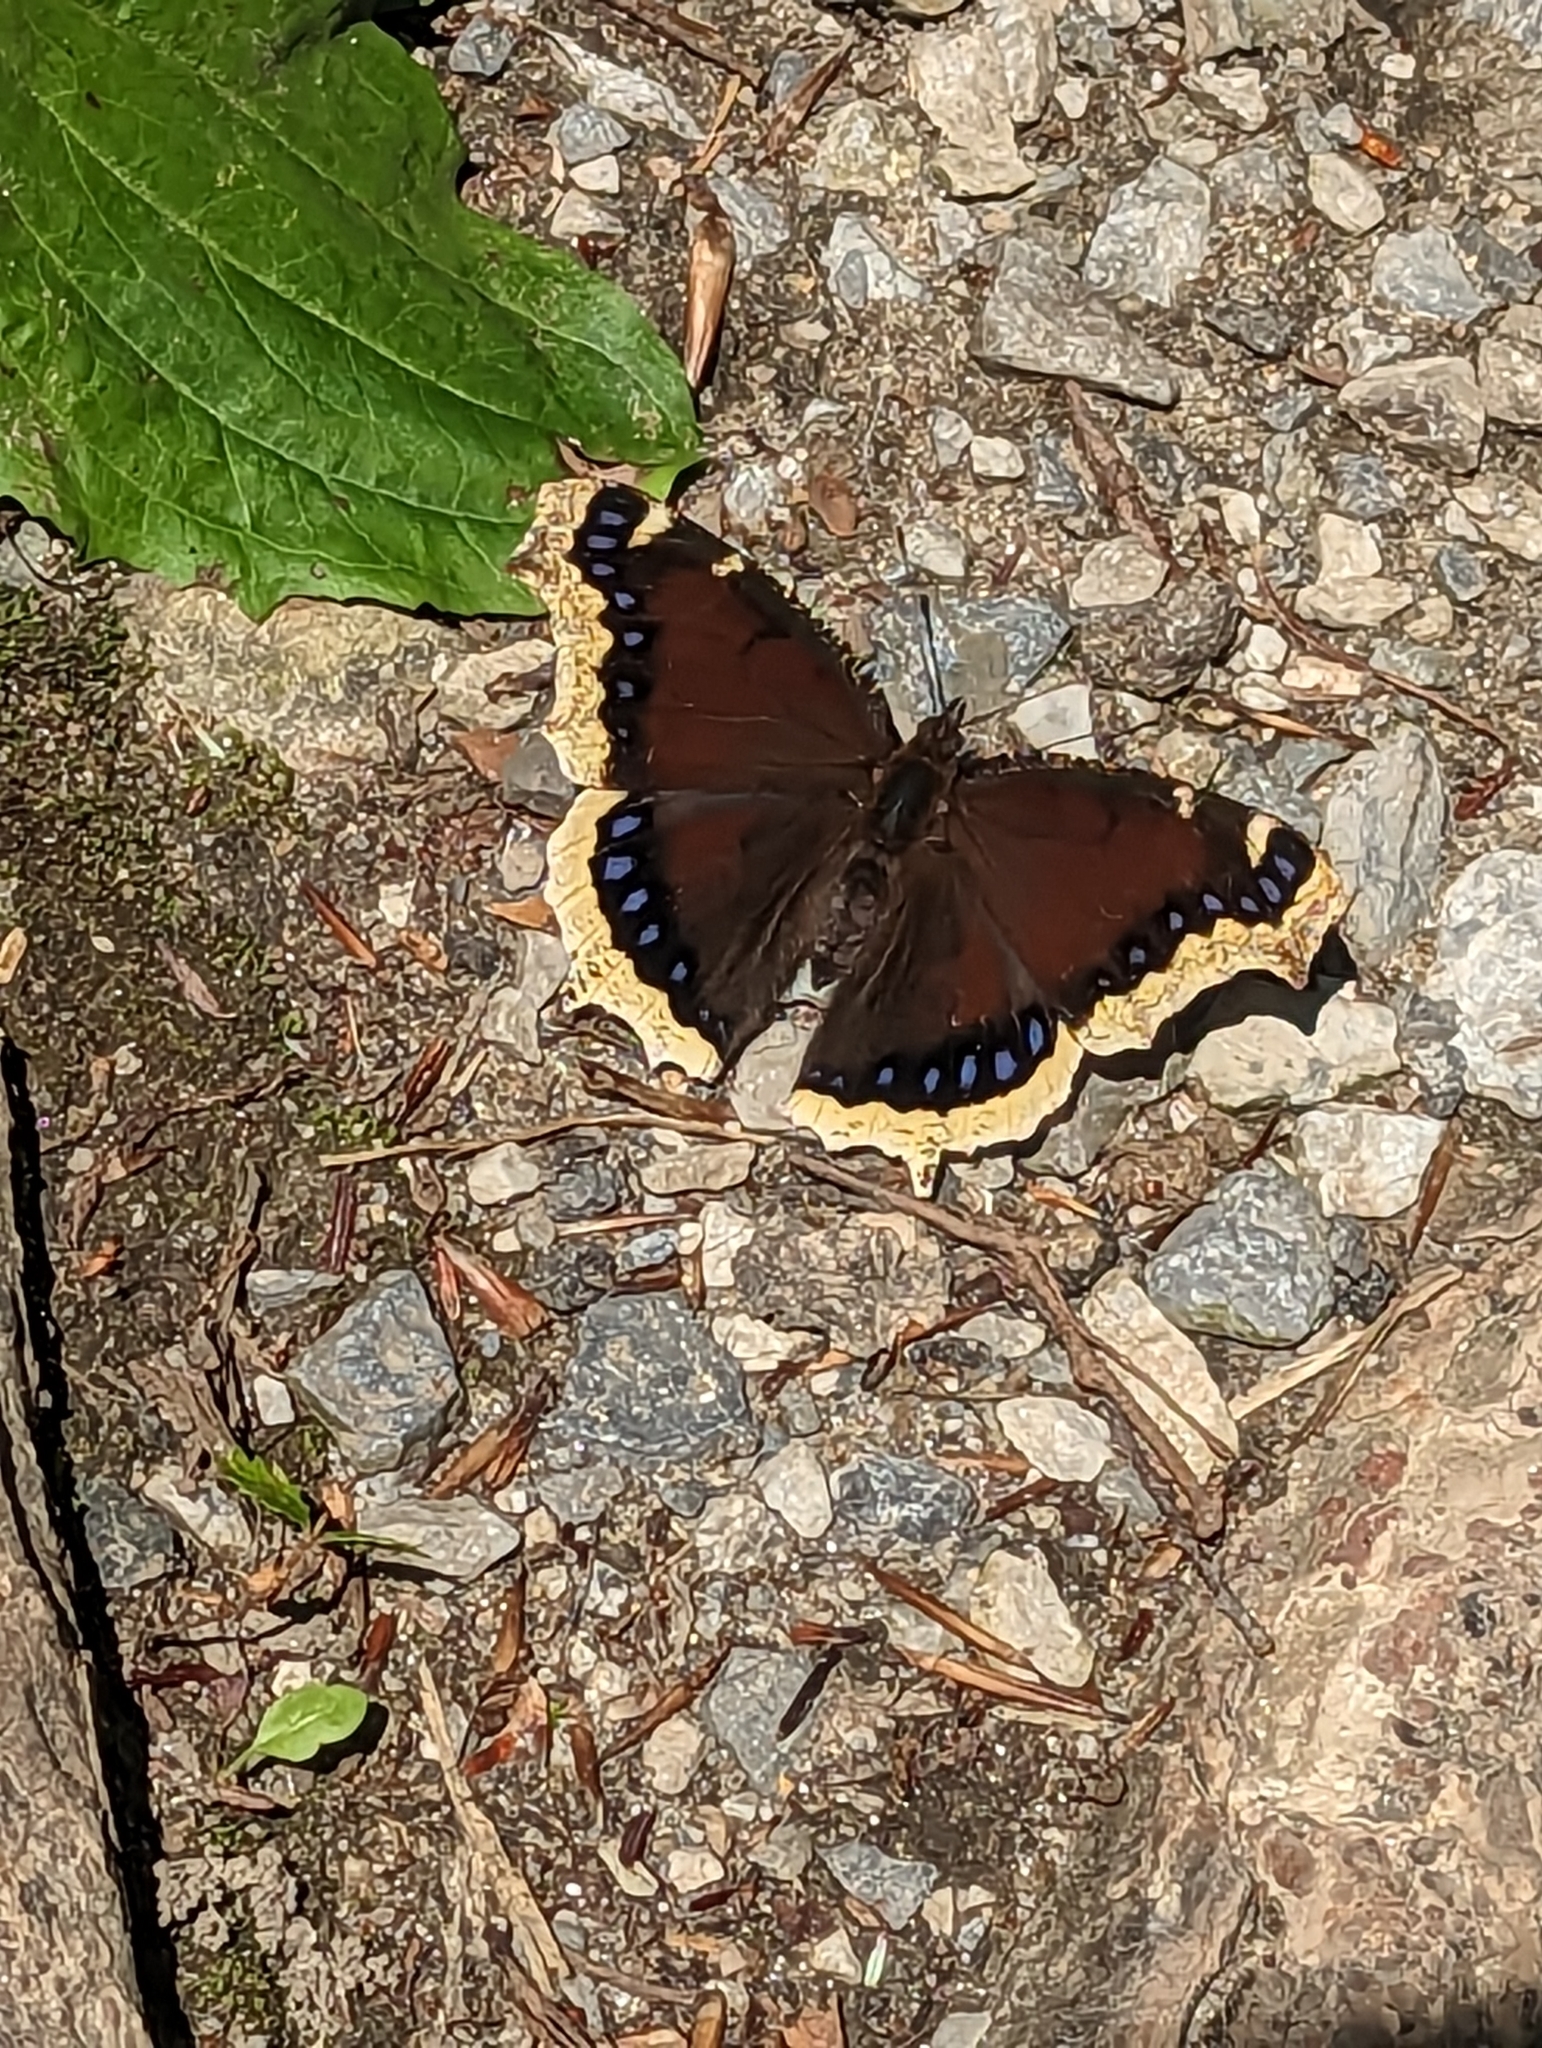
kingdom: Animalia
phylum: Arthropoda
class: Insecta
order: Lepidoptera
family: Nymphalidae
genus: Nymphalis
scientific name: Nymphalis antiopa
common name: Camberwell beauty
